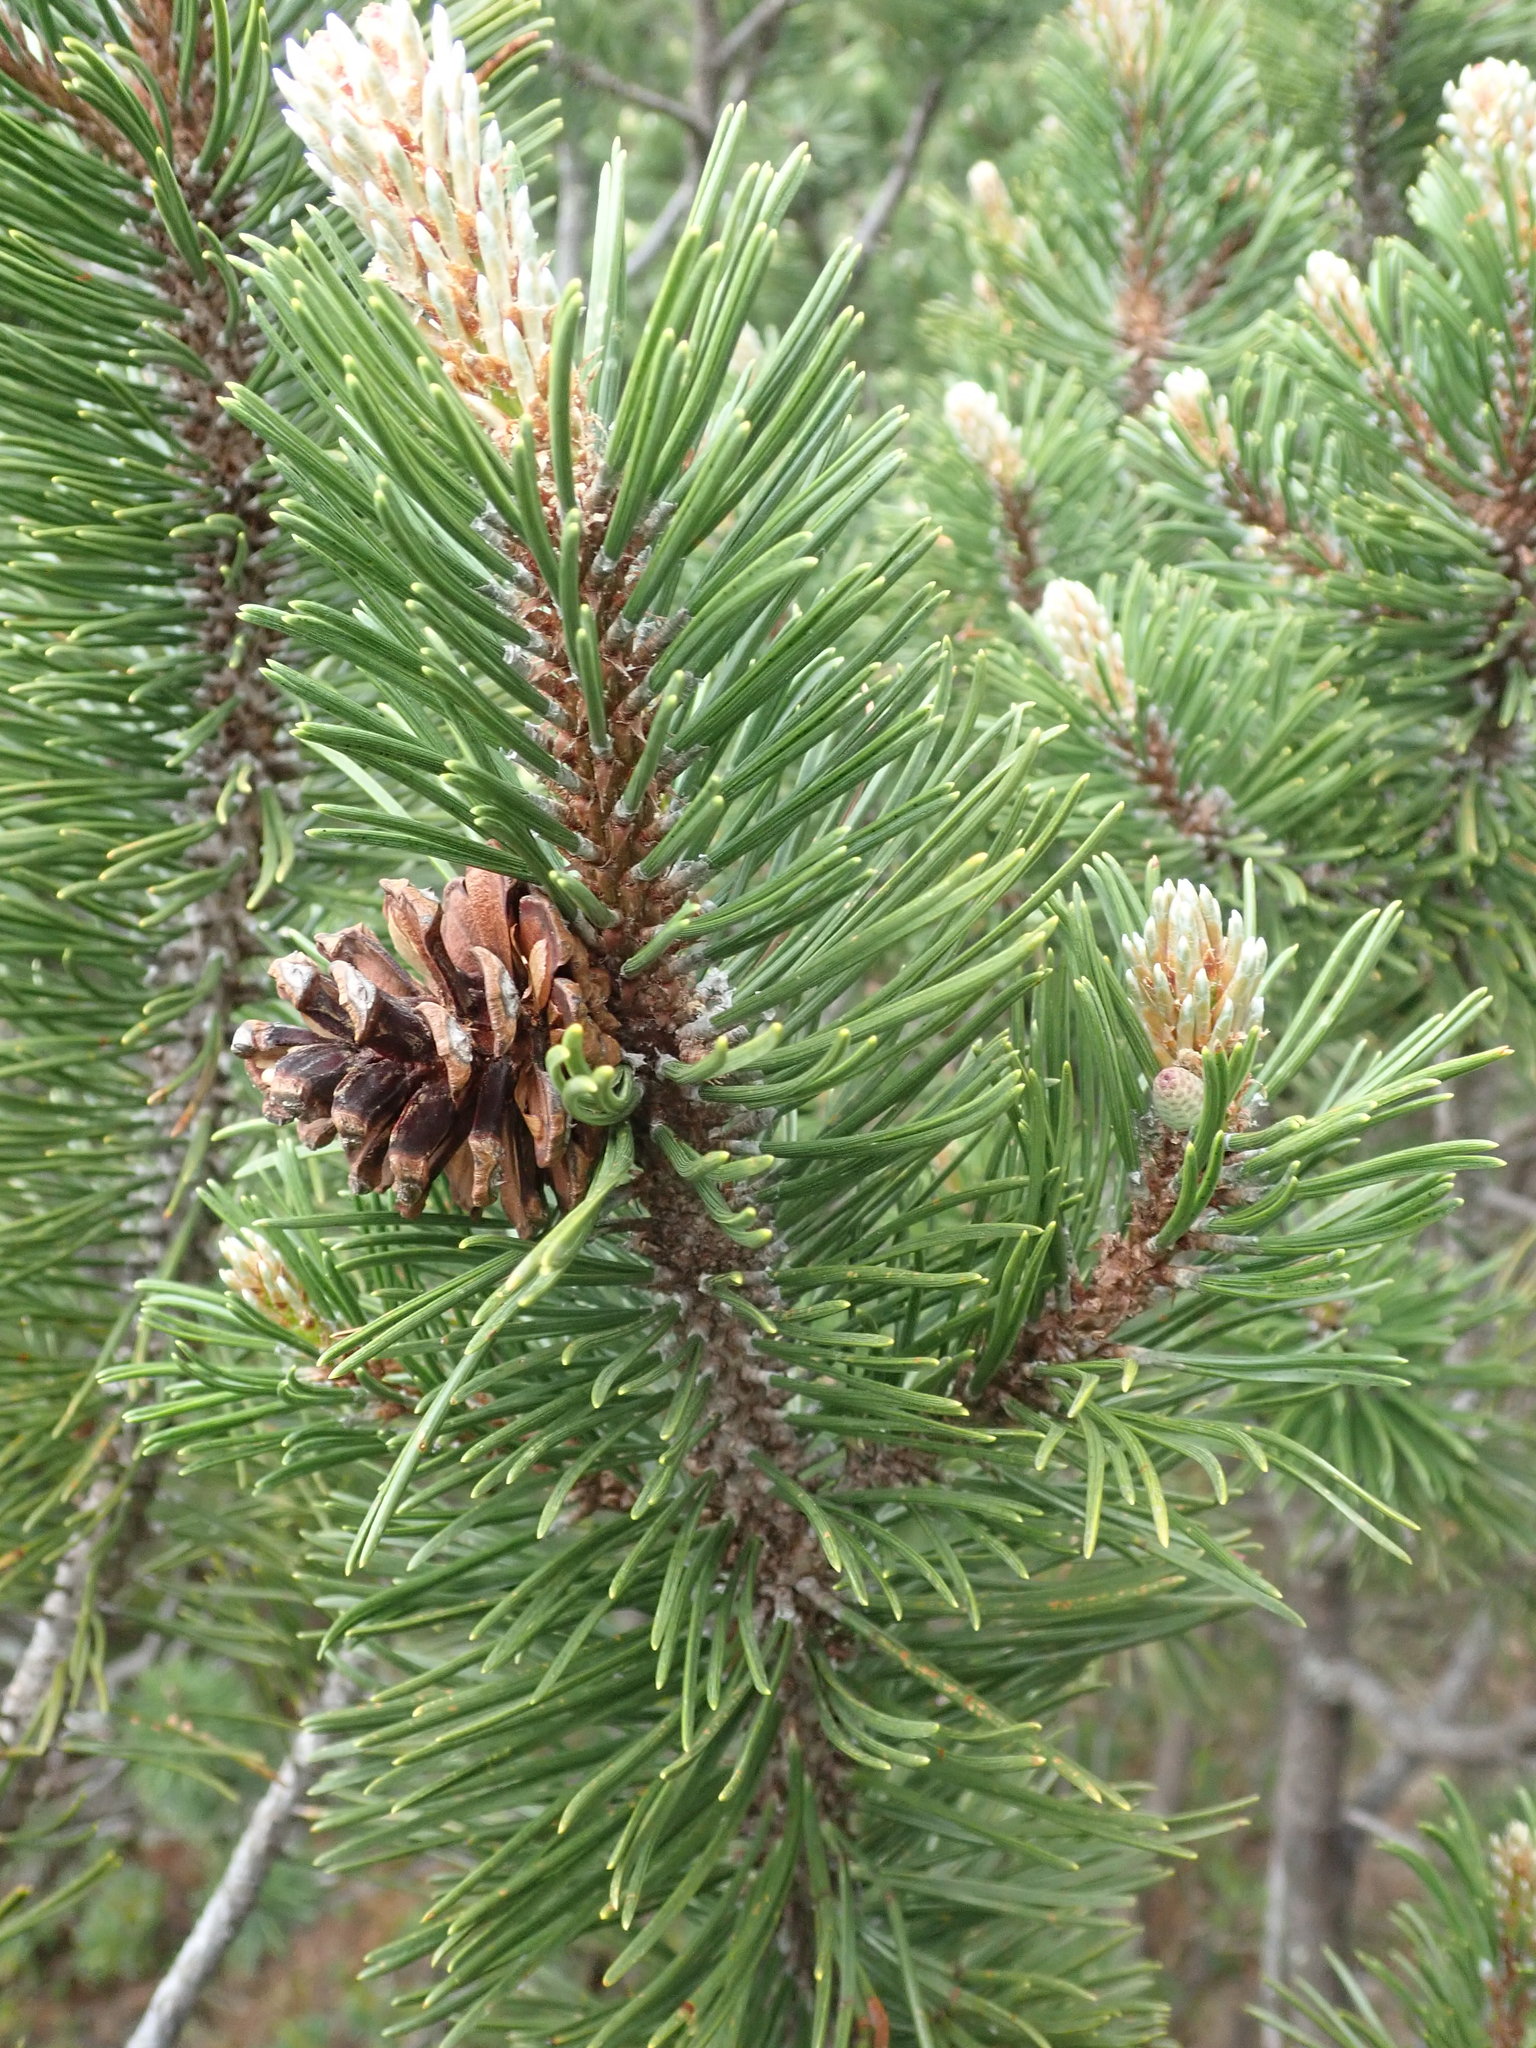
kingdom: Plantae
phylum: Tracheophyta
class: Pinopsida
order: Pinales
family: Pinaceae
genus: Pinus
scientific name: Pinus mugo
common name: Mugo pine
